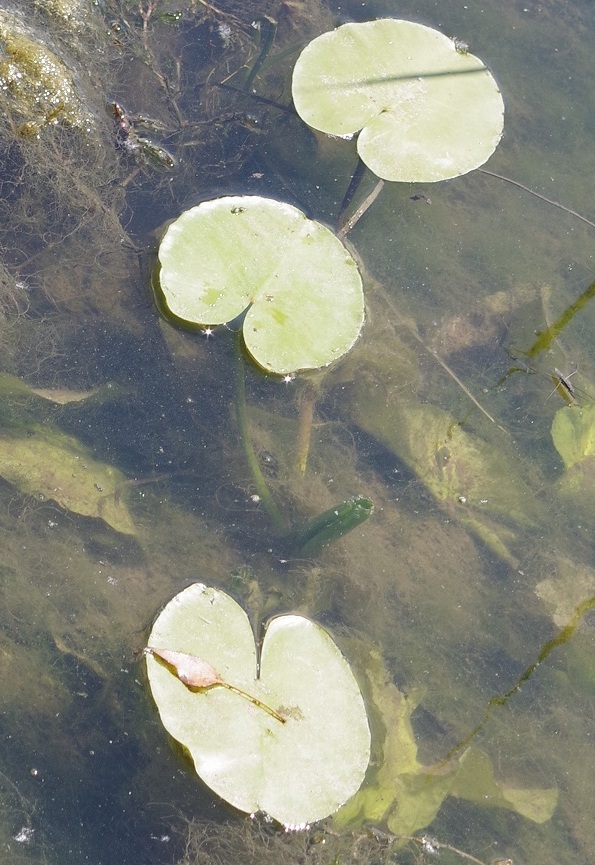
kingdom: Plantae
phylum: Tracheophyta
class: Magnoliopsida
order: Nymphaeales
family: Nymphaeaceae
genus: Nuphar
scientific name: Nuphar lutea
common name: Yellow water-lily
